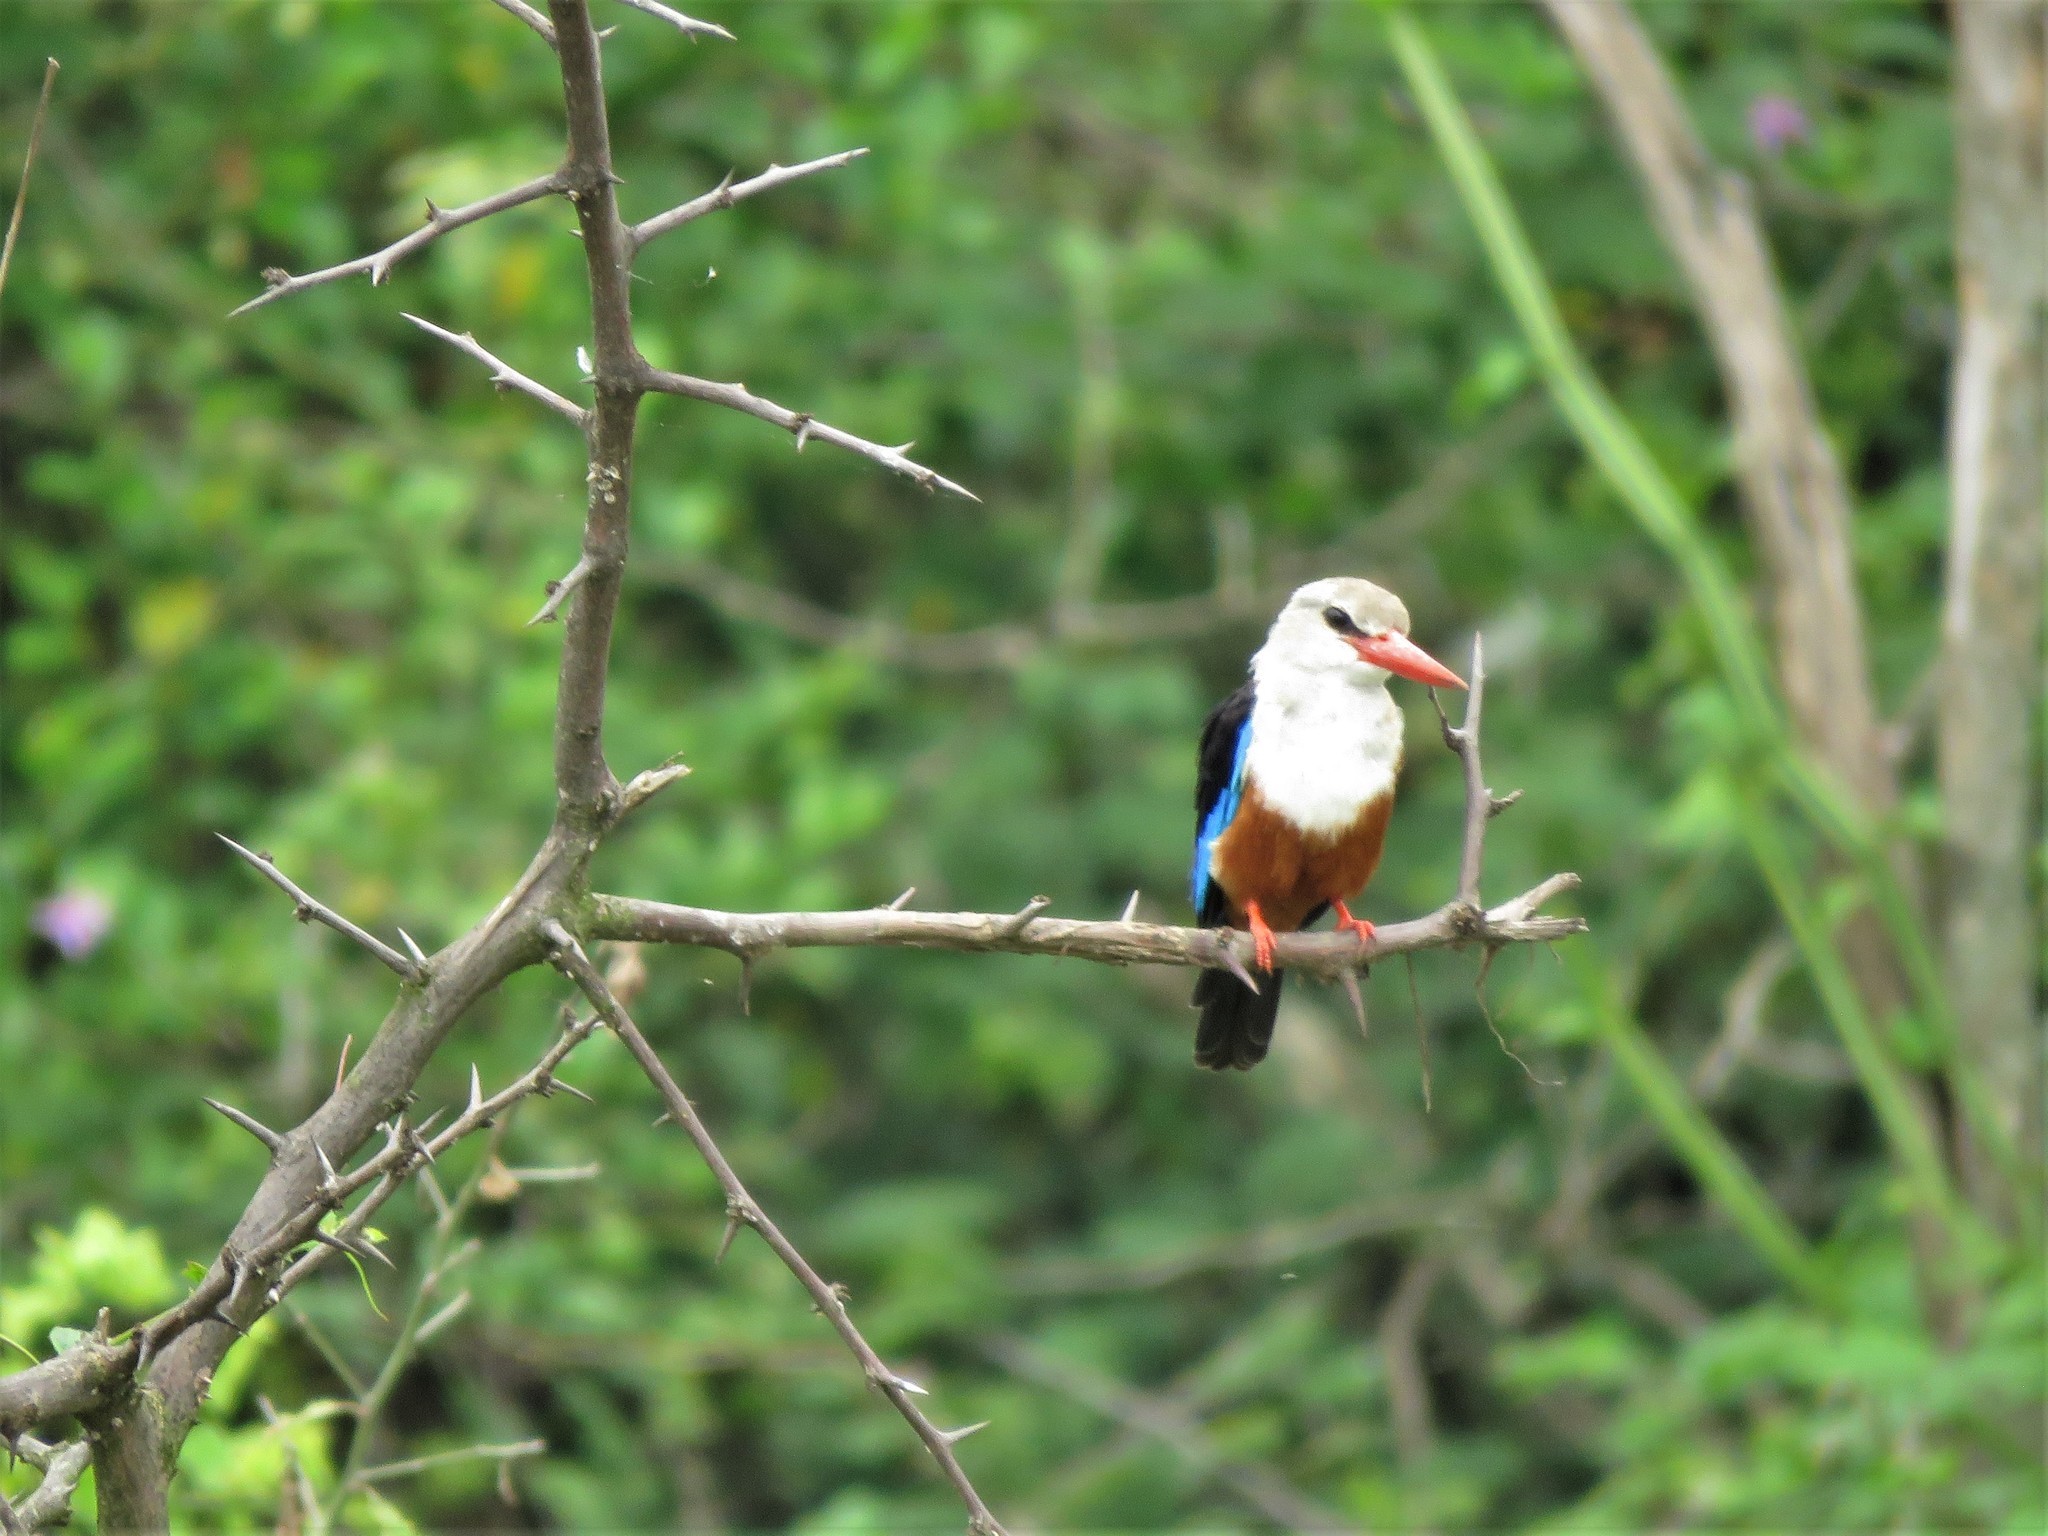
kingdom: Animalia
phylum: Chordata
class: Aves
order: Coraciiformes
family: Alcedinidae
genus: Halcyon
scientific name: Halcyon leucocephala
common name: Grey-headed kingfisher
